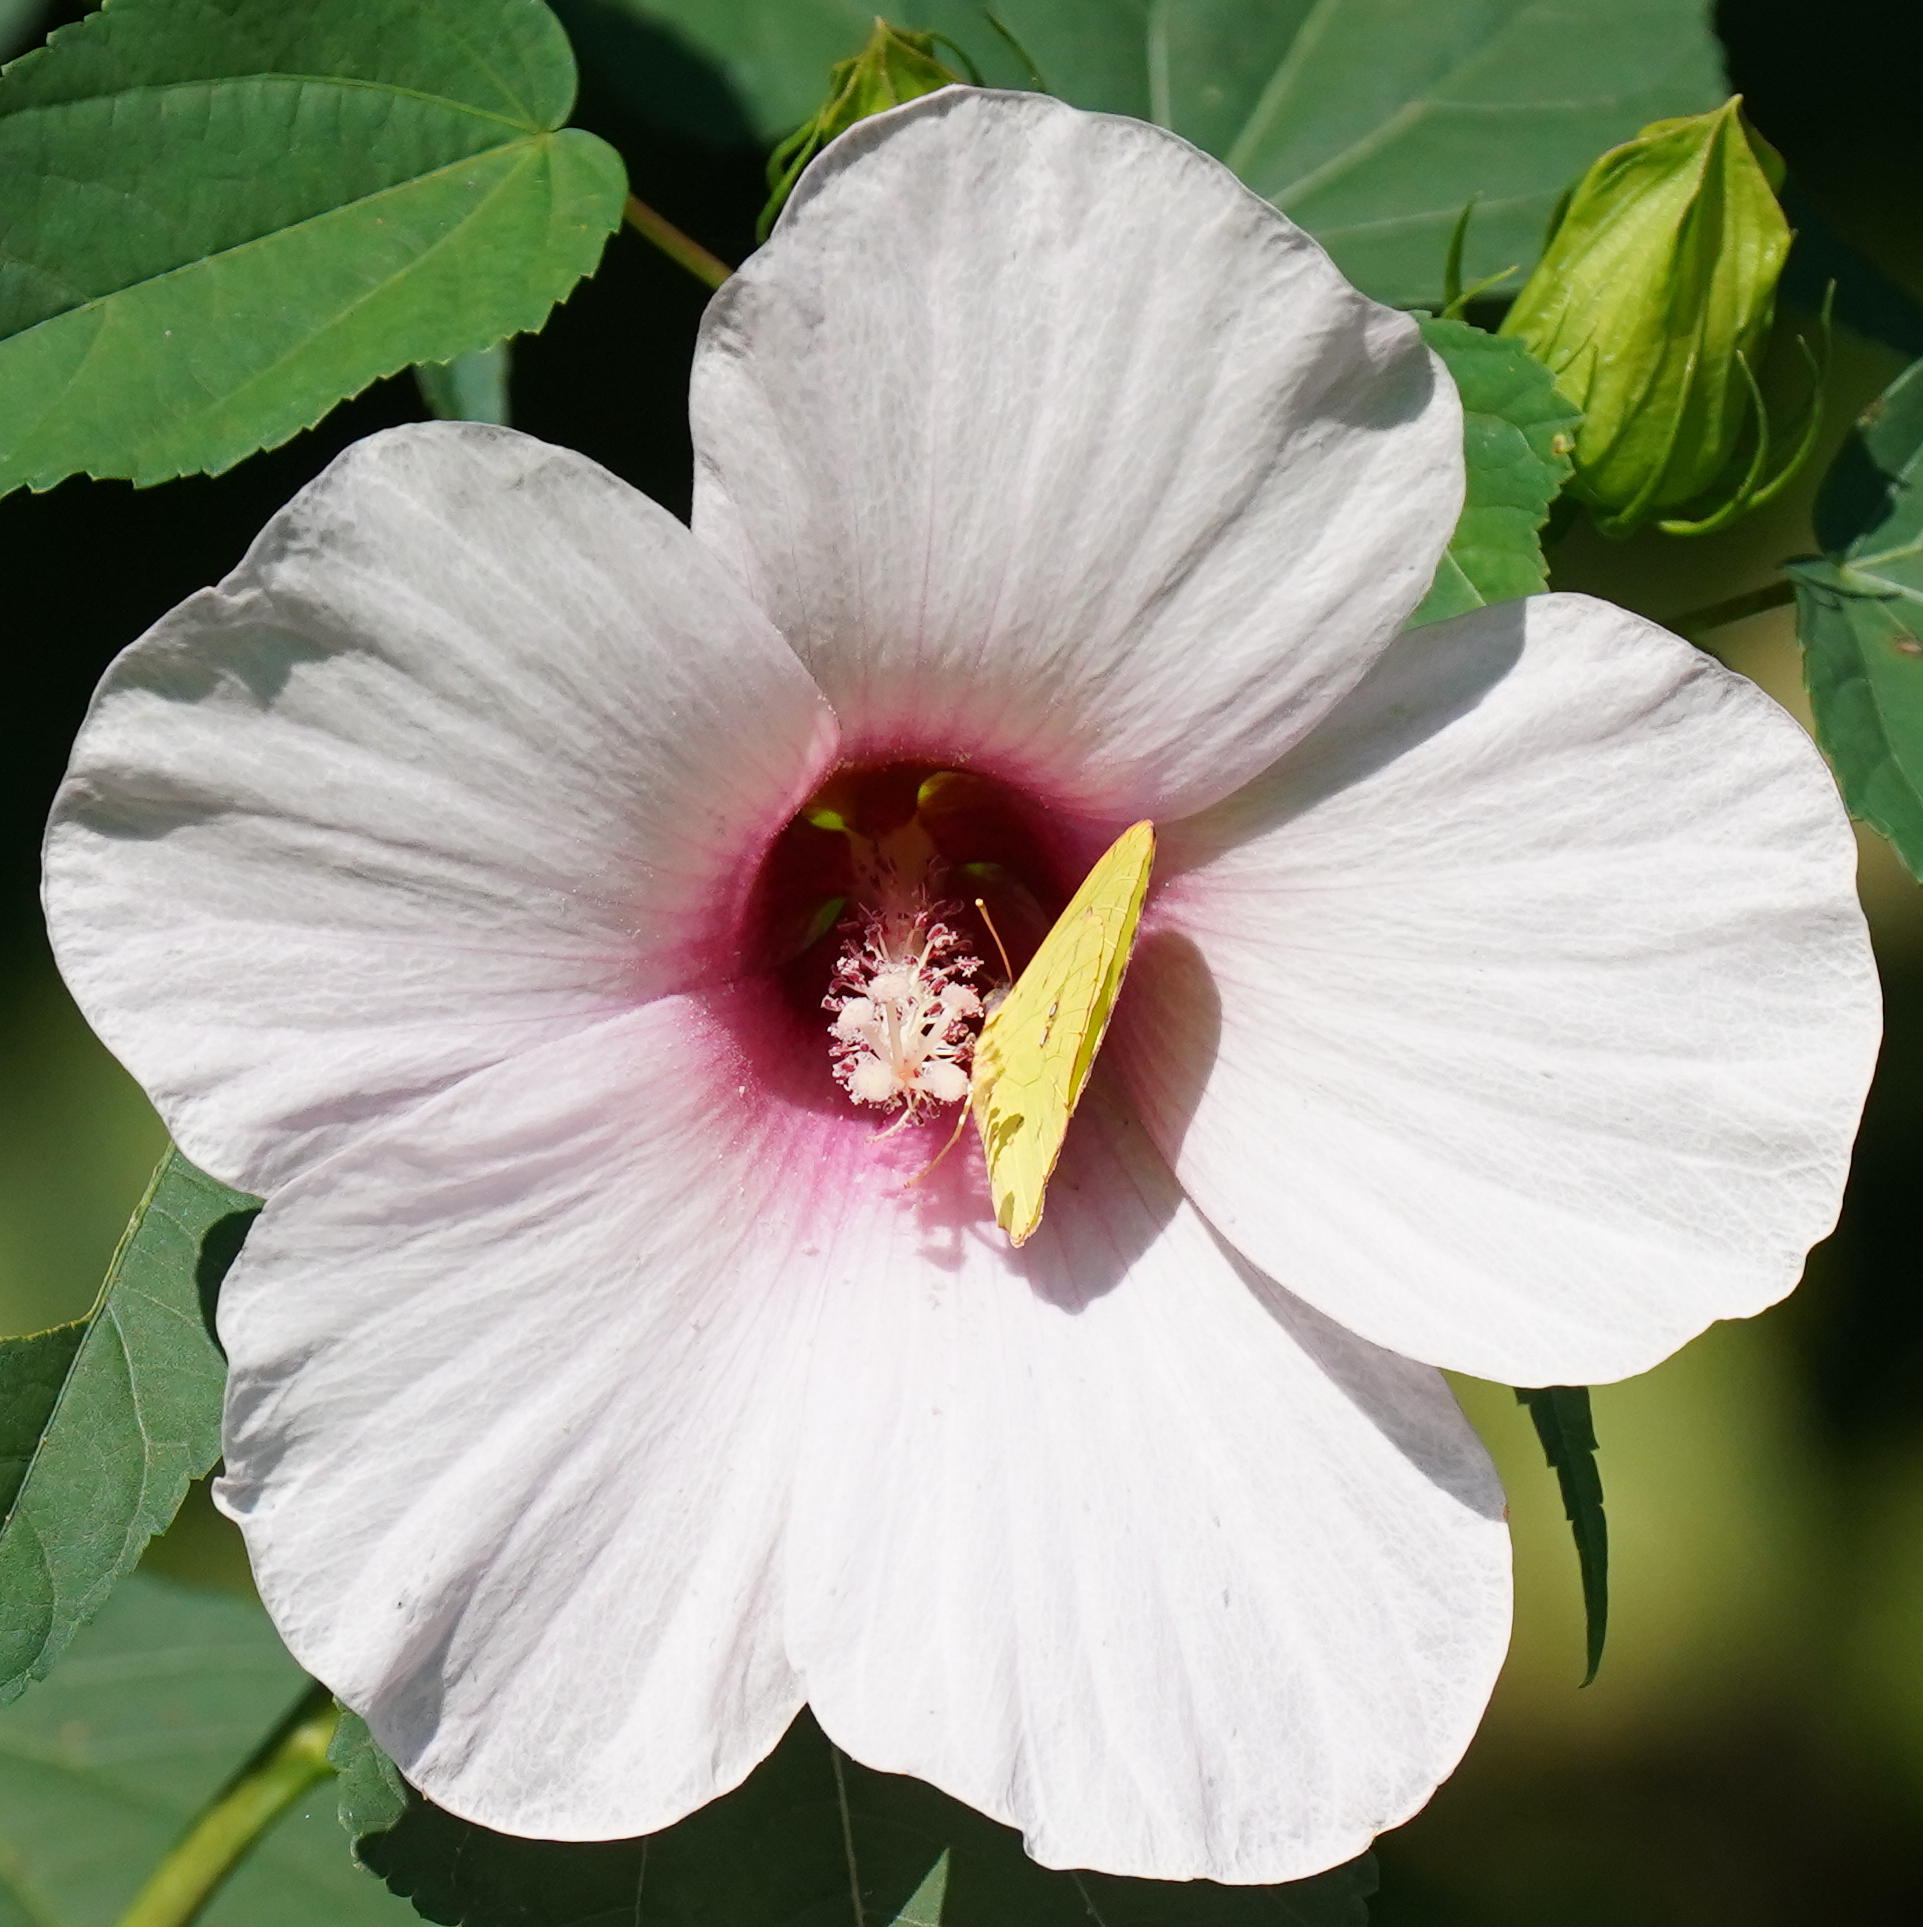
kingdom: Plantae
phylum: Tracheophyta
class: Magnoliopsida
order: Malvales
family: Malvaceae
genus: Hibiscus
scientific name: Hibiscus laevis
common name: Scarlet rose-mallow
